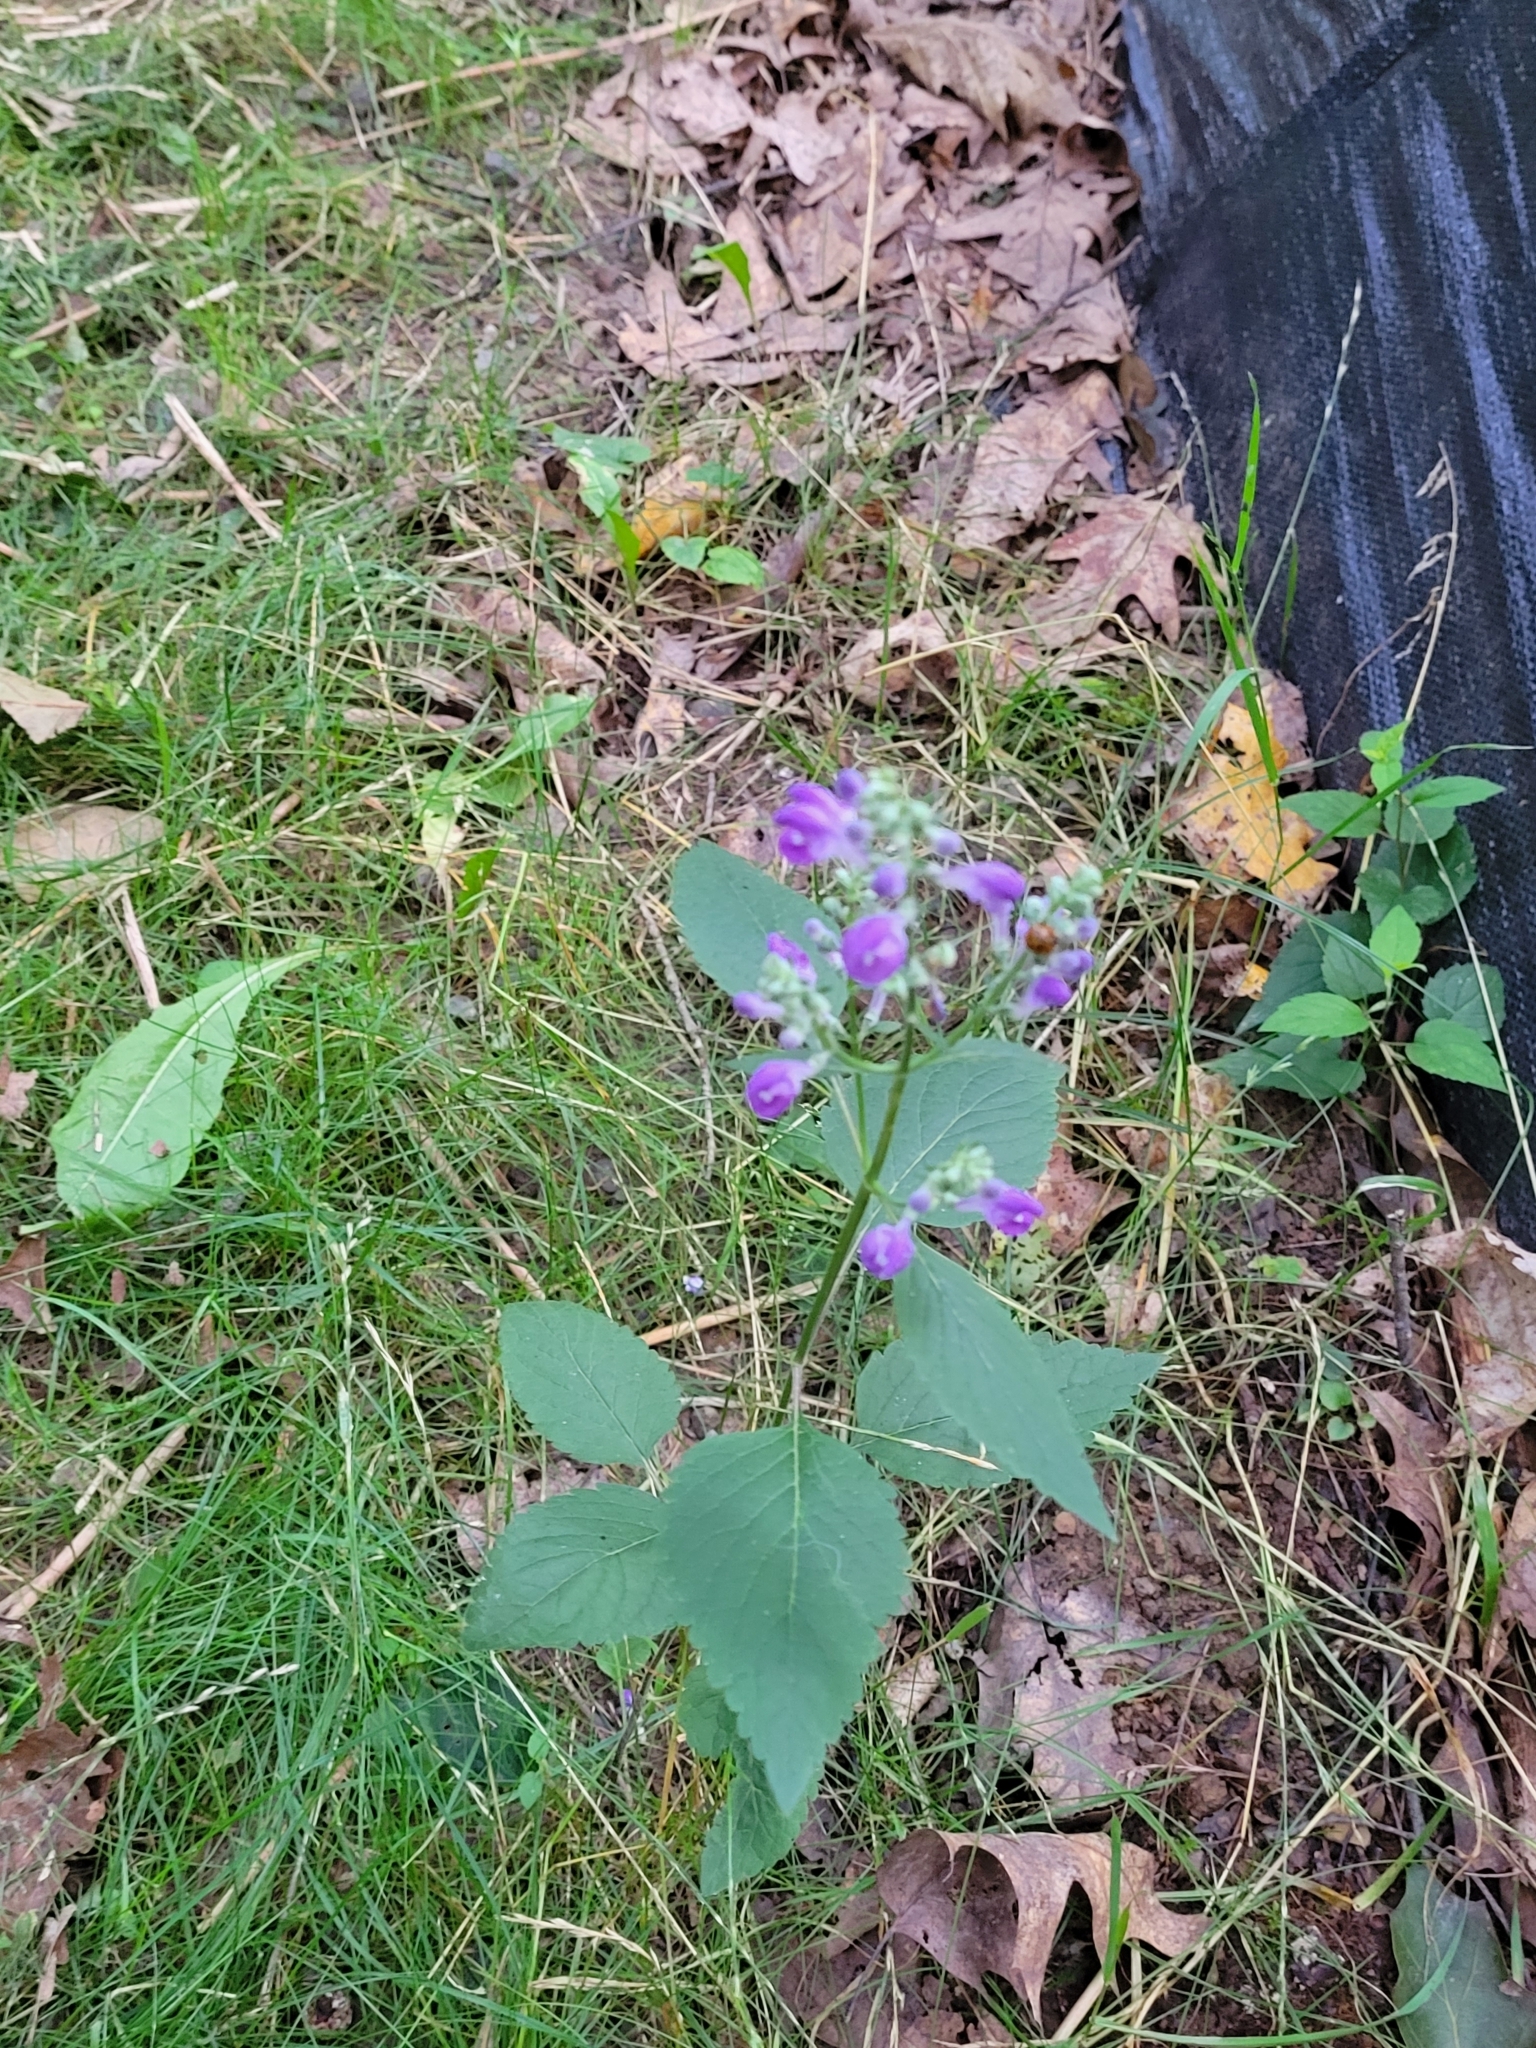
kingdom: Plantae
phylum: Tracheophyta
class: Magnoliopsida
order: Lamiales
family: Lamiaceae
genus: Scutellaria
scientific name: Scutellaria incana
